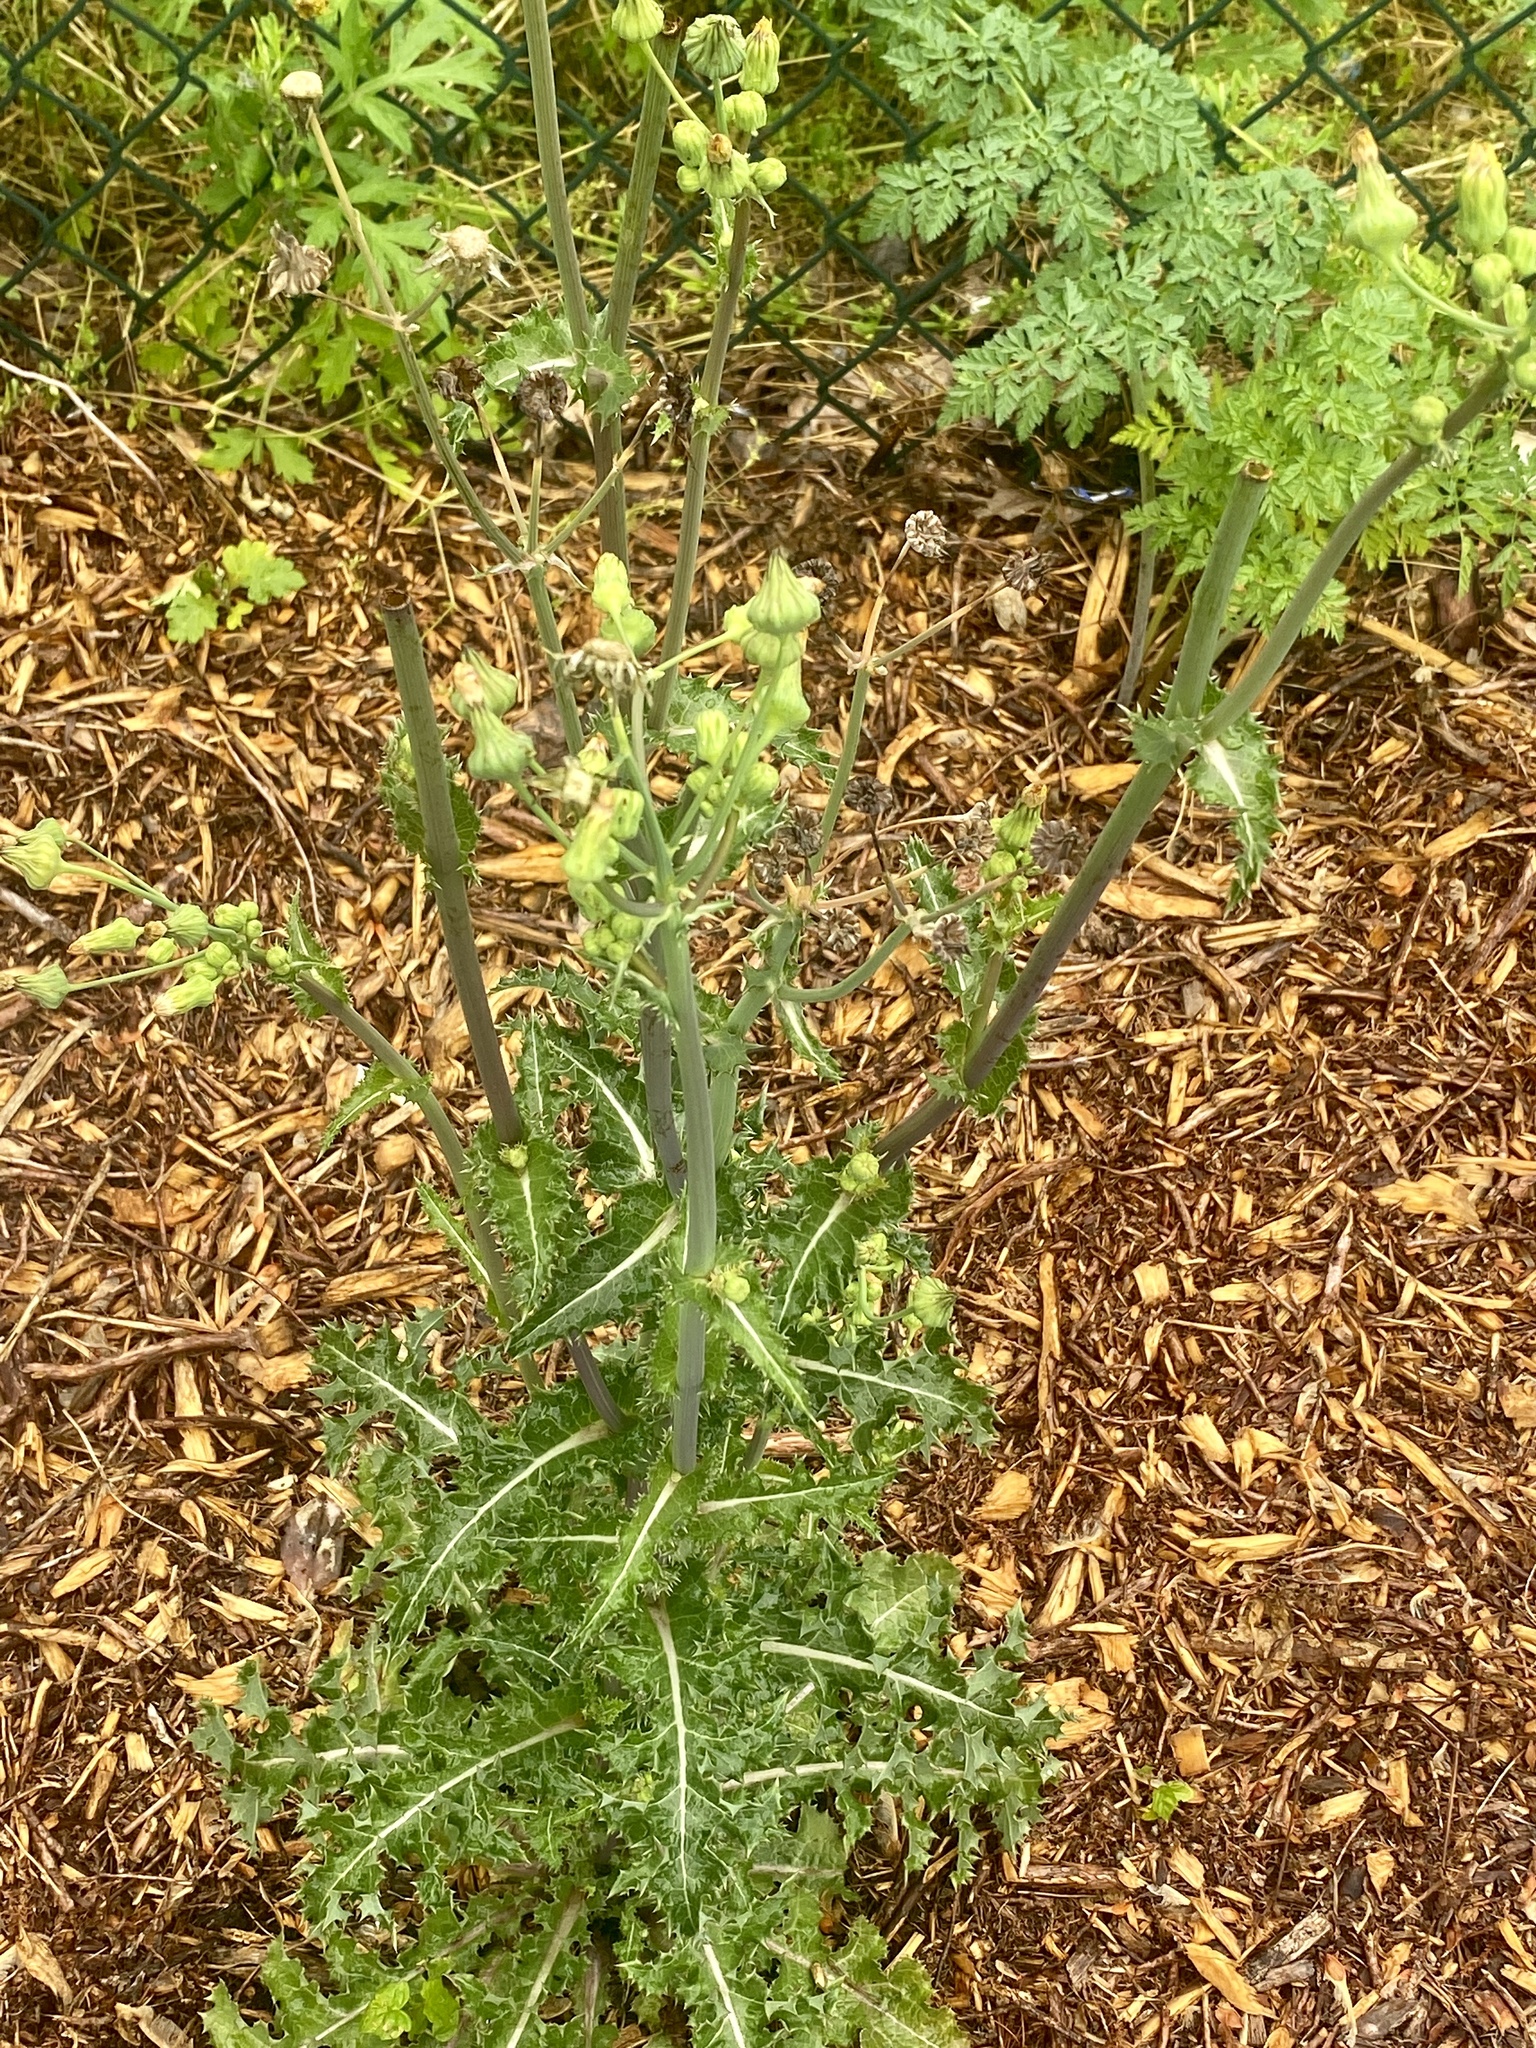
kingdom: Plantae
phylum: Tracheophyta
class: Magnoliopsida
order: Asterales
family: Asteraceae
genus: Sonchus
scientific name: Sonchus asper
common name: Prickly sow-thistle
